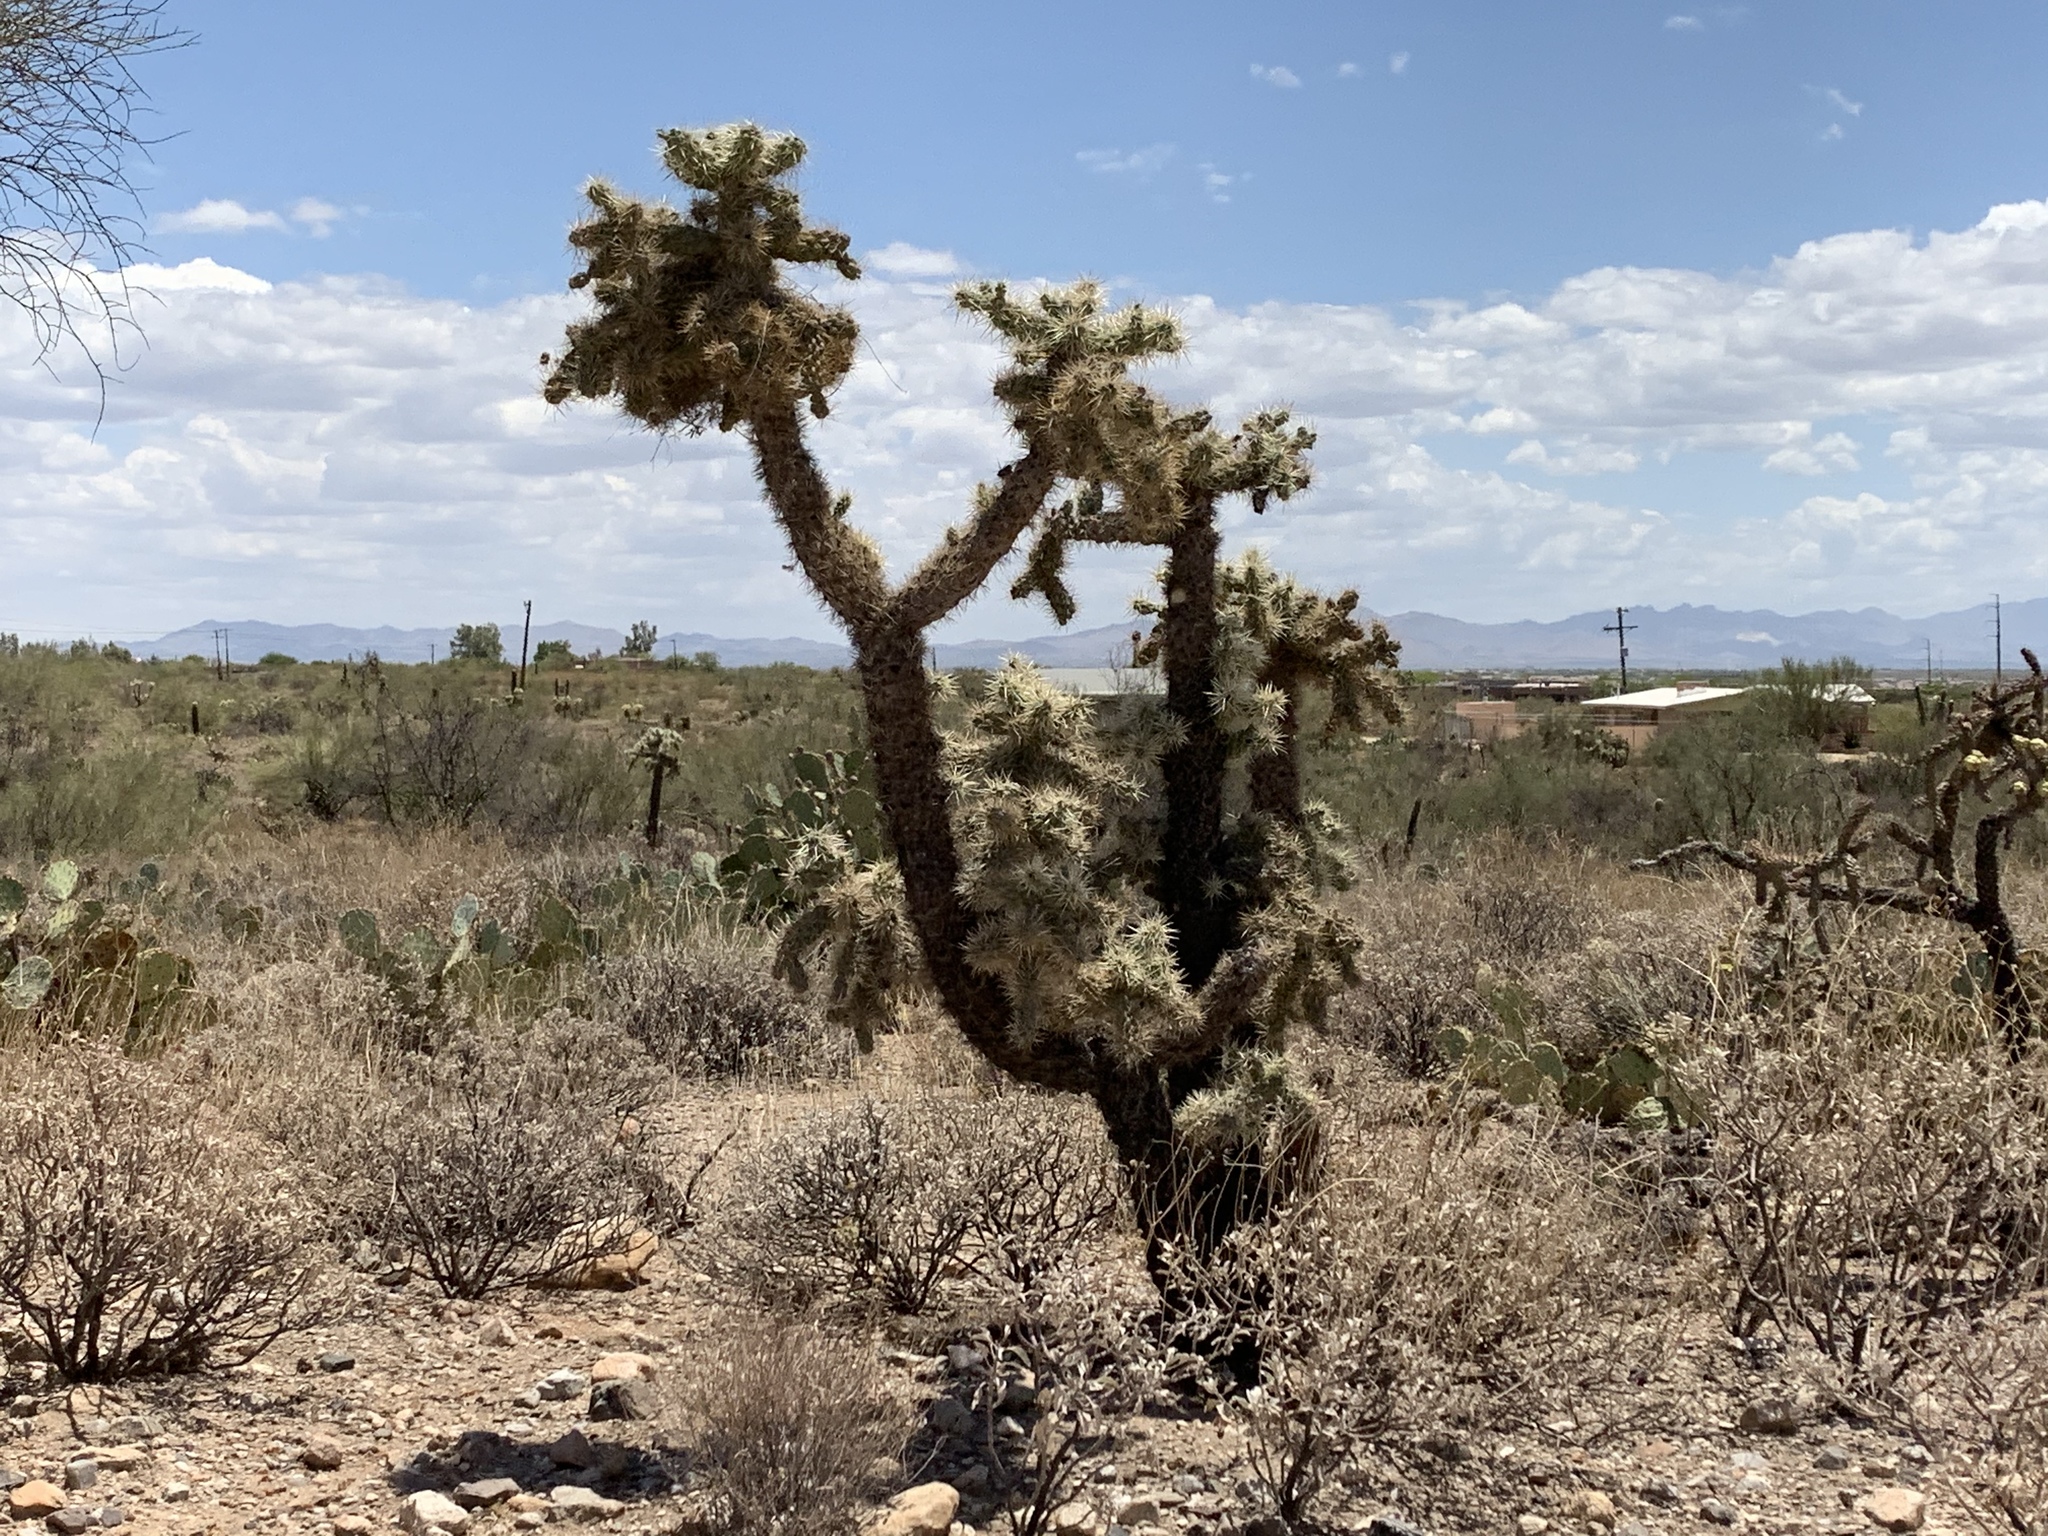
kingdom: Plantae
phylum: Tracheophyta
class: Magnoliopsida
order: Caryophyllales
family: Cactaceae
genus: Cylindropuntia
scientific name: Cylindropuntia fulgida
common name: Jumping cholla
